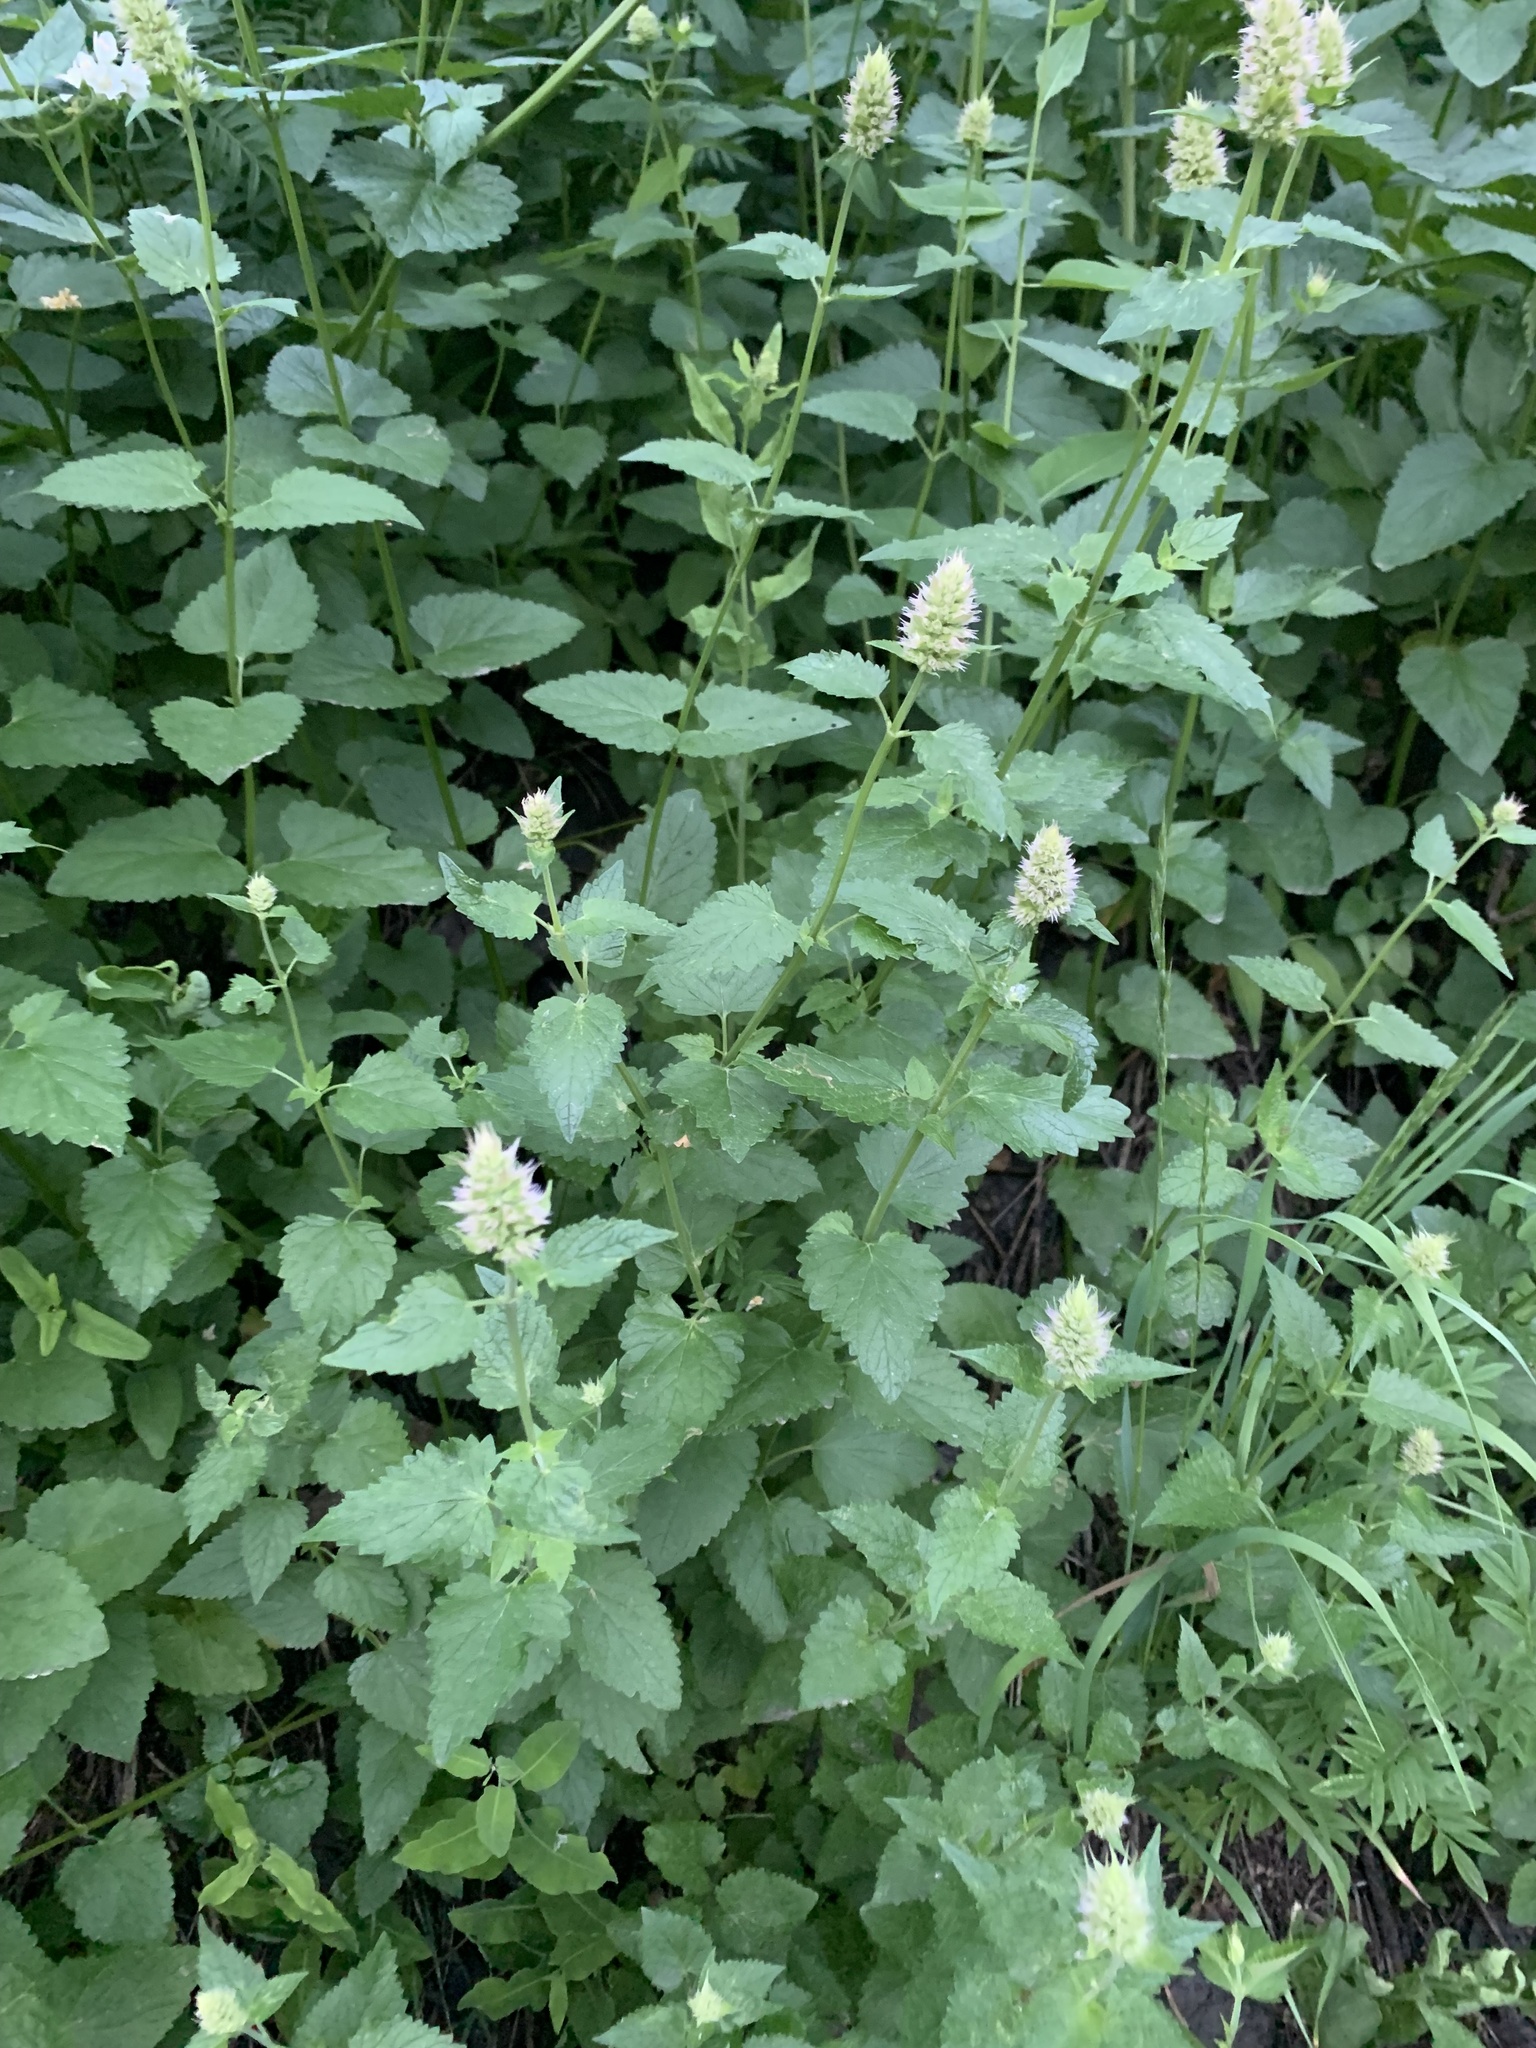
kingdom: Plantae
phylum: Tracheophyta
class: Magnoliopsida
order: Lamiales
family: Lamiaceae
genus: Agastache
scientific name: Agastache urticifolia
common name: Horsemint giant hyssop
